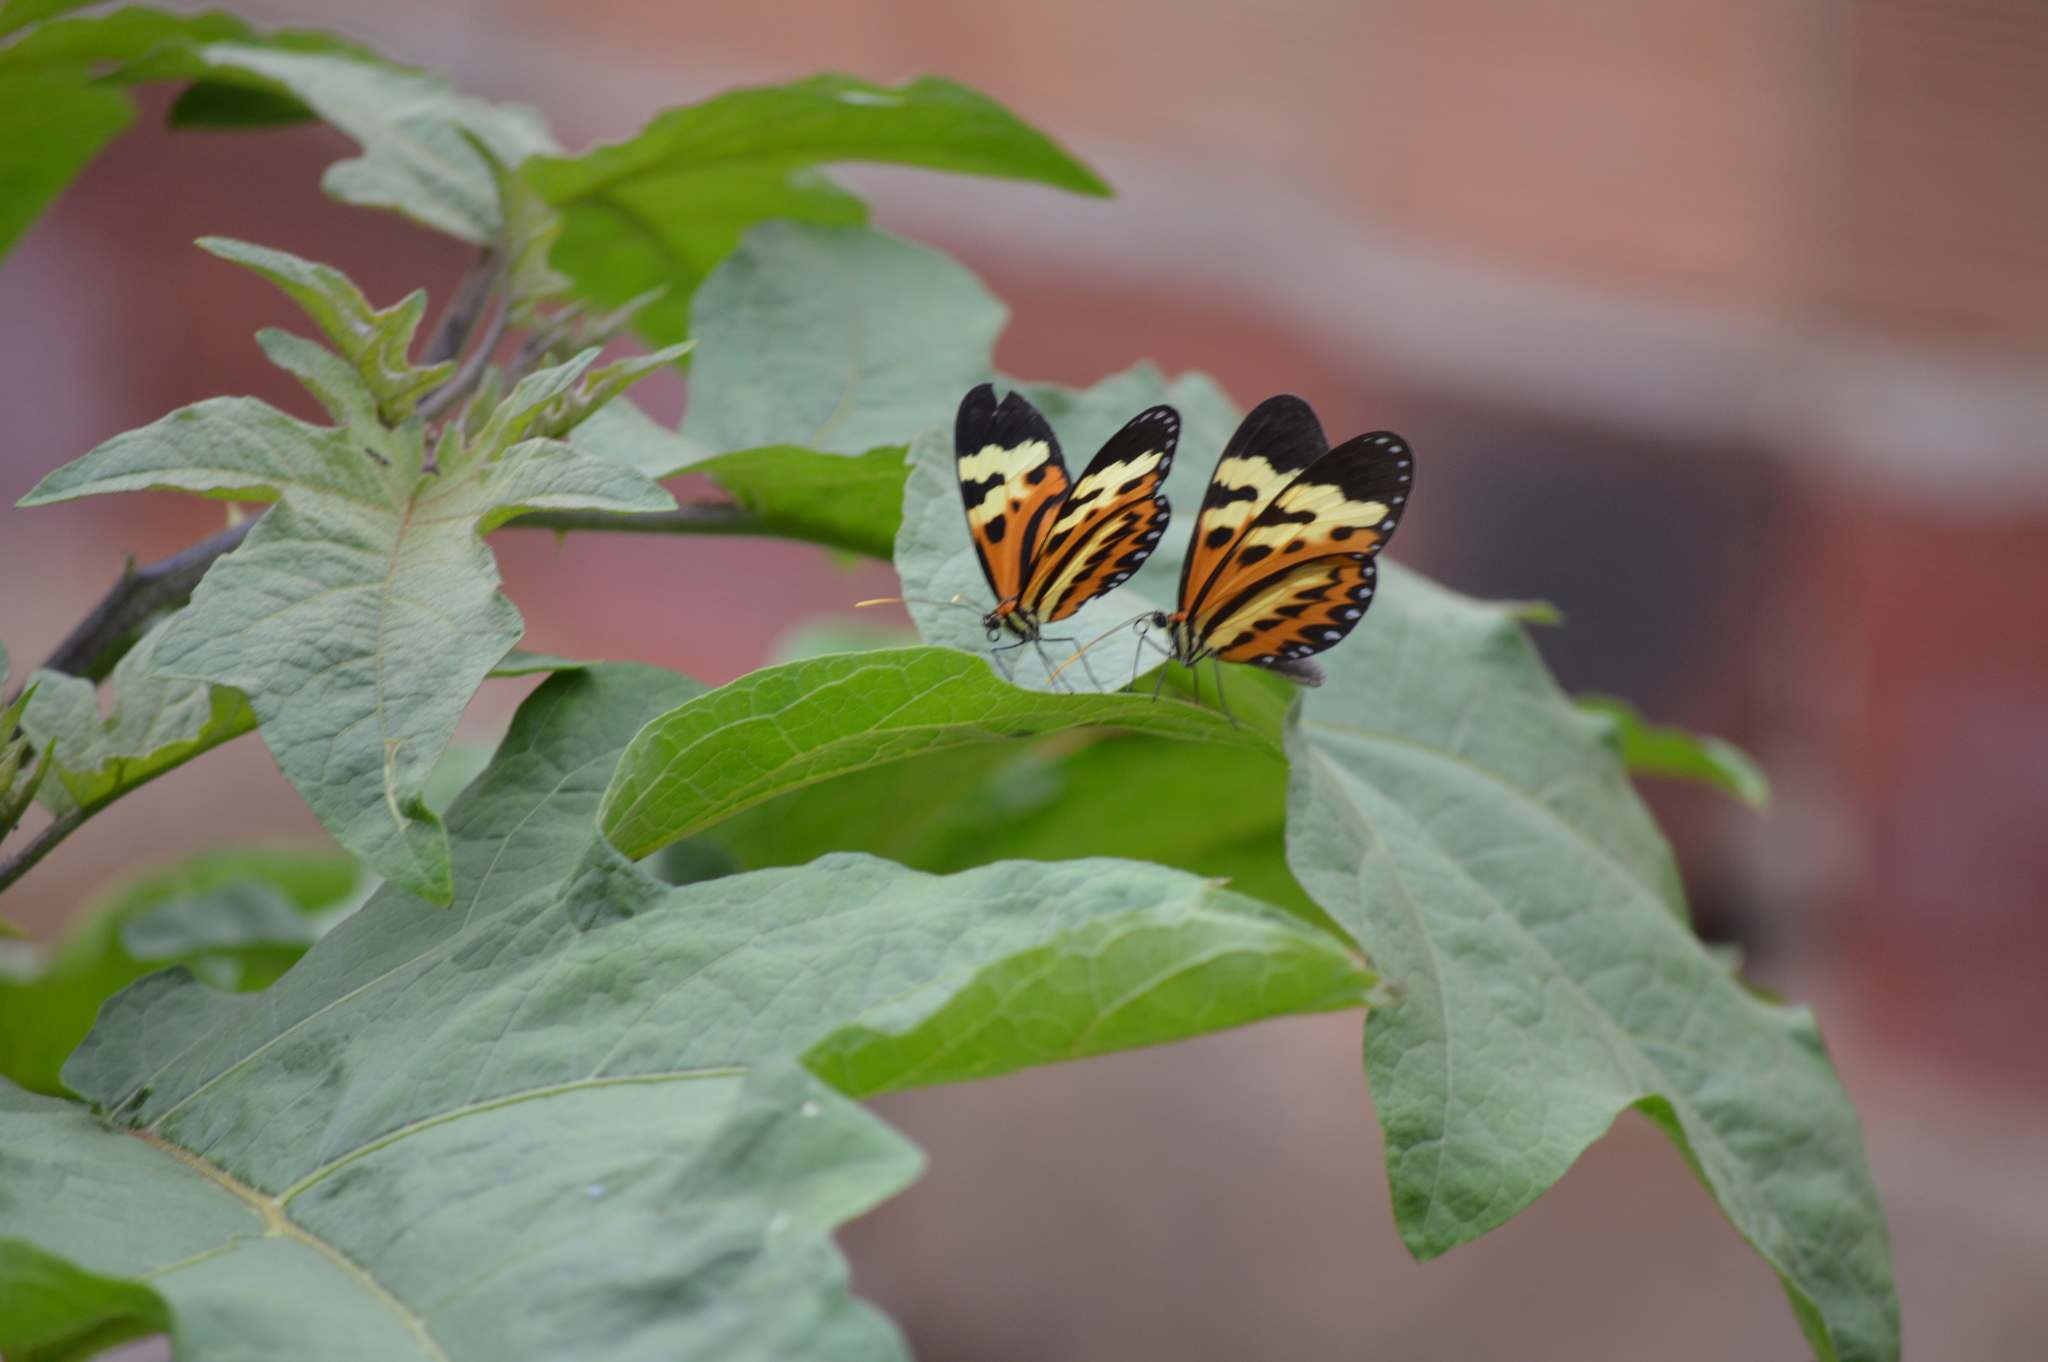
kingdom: Animalia
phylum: Arthropoda
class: Insecta
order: Lepidoptera
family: Nymphalidae
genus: Mechanitis
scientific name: Mechanitis polymnia
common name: Disturbed tigerwing
